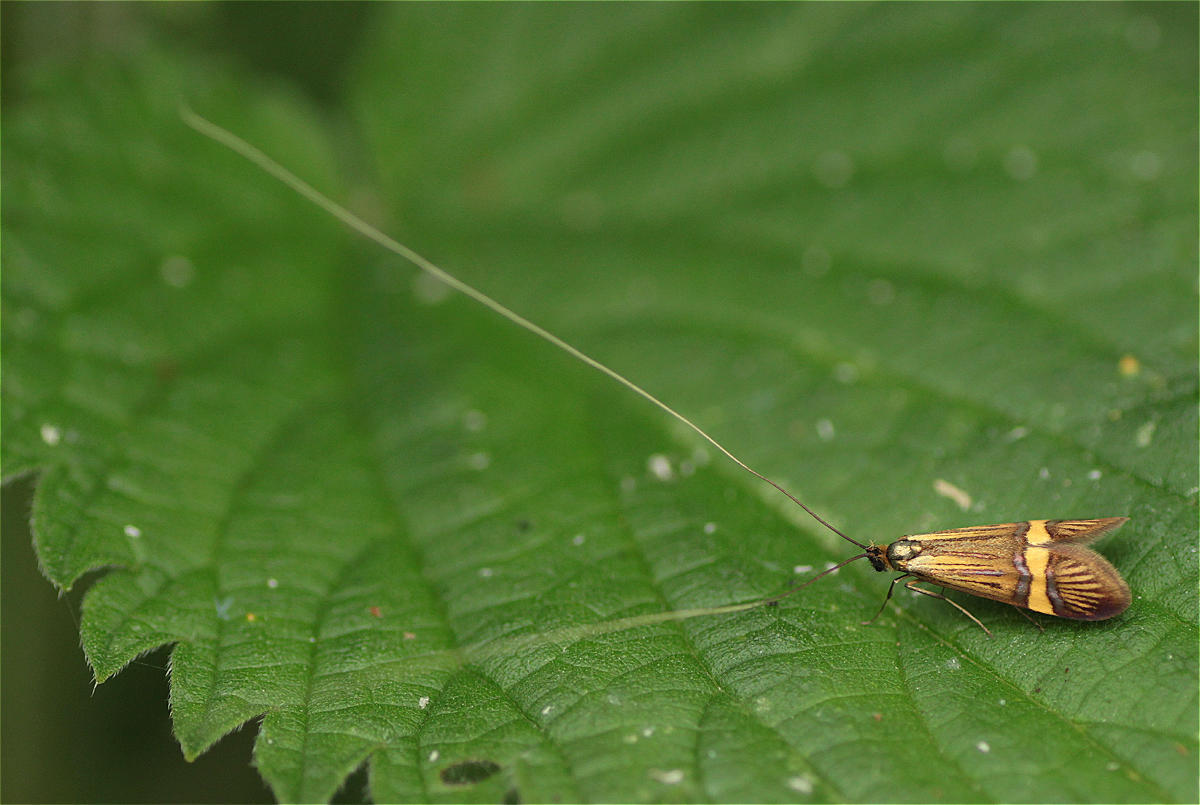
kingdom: Animalia
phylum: Arthropoda
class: Insecta
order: Lepidoptera
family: Adelidae
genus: Nemophora
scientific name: Nemophora
